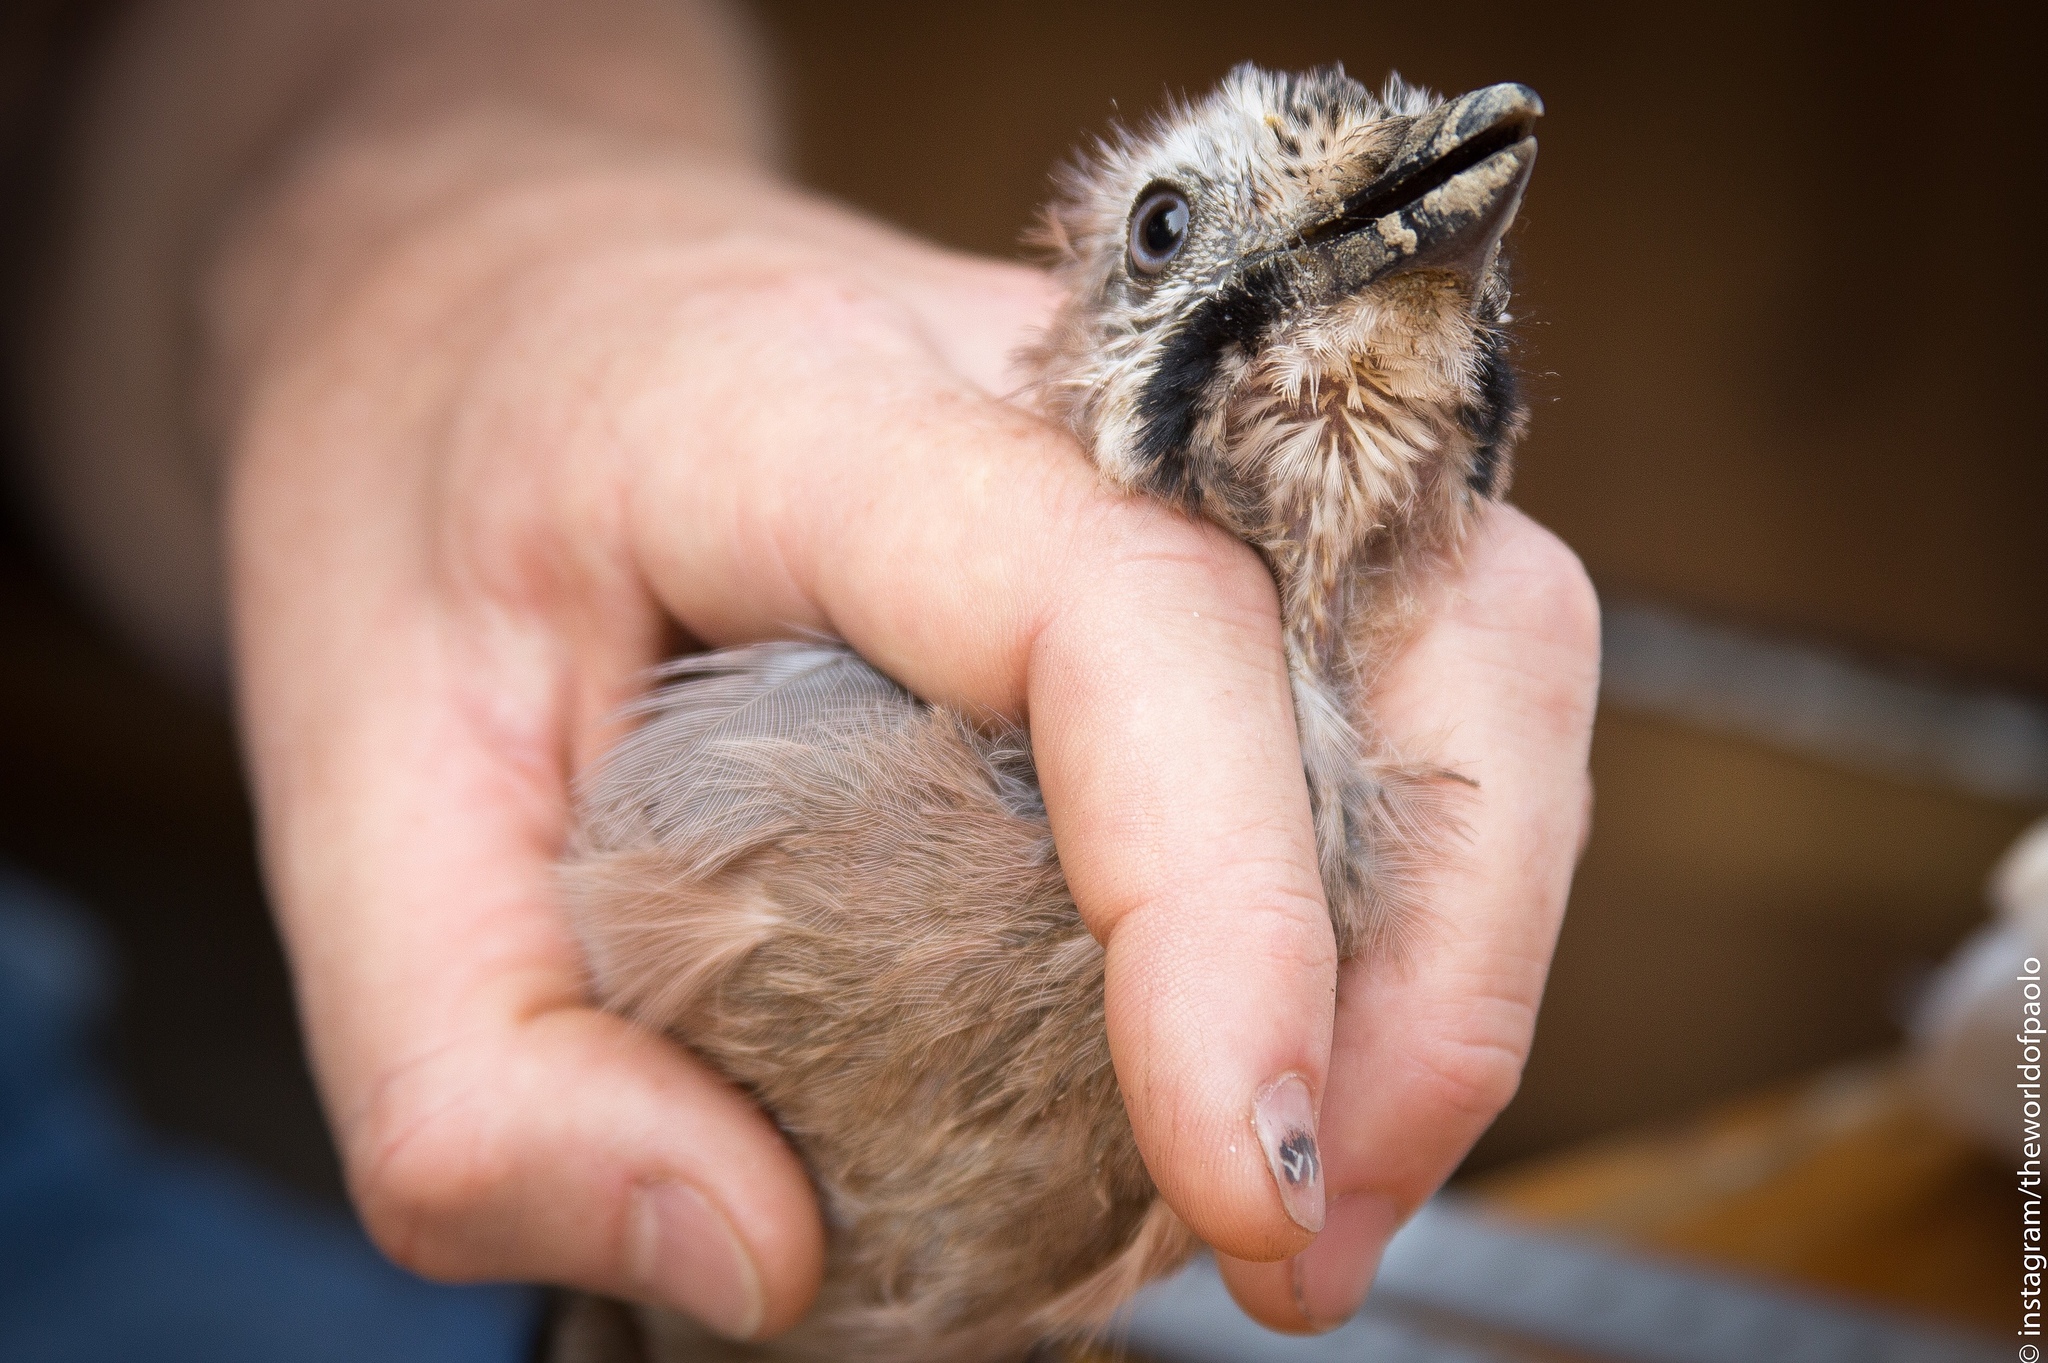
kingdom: Animalia
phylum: Chordata
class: Aves
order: Passeriformes
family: Corvidae
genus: Garrulus
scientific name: Garrulus glandarius
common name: Eurasian jay
